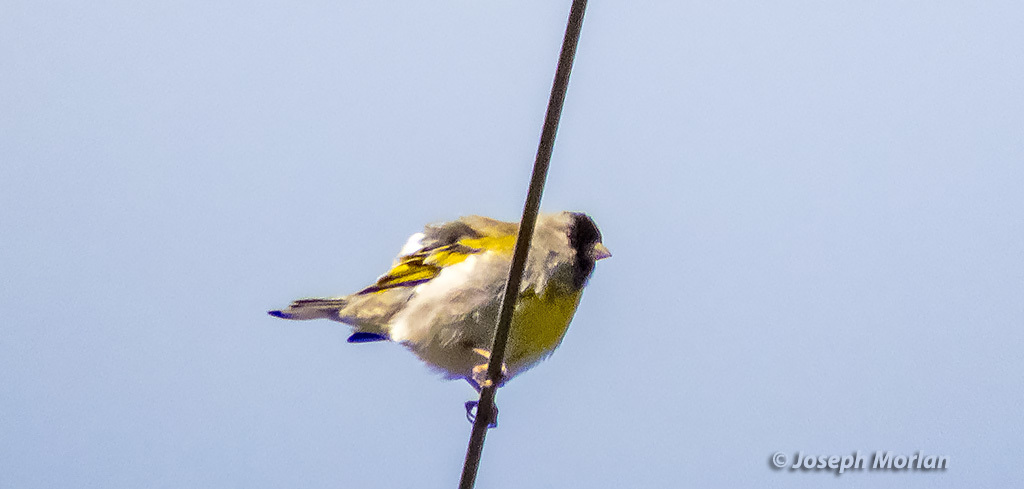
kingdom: Animalia
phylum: Chordata
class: Aves
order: Passeriformes
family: Fringillidae
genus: Spinus
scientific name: Spinus lawrencei
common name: Lawrence's goldfinch
